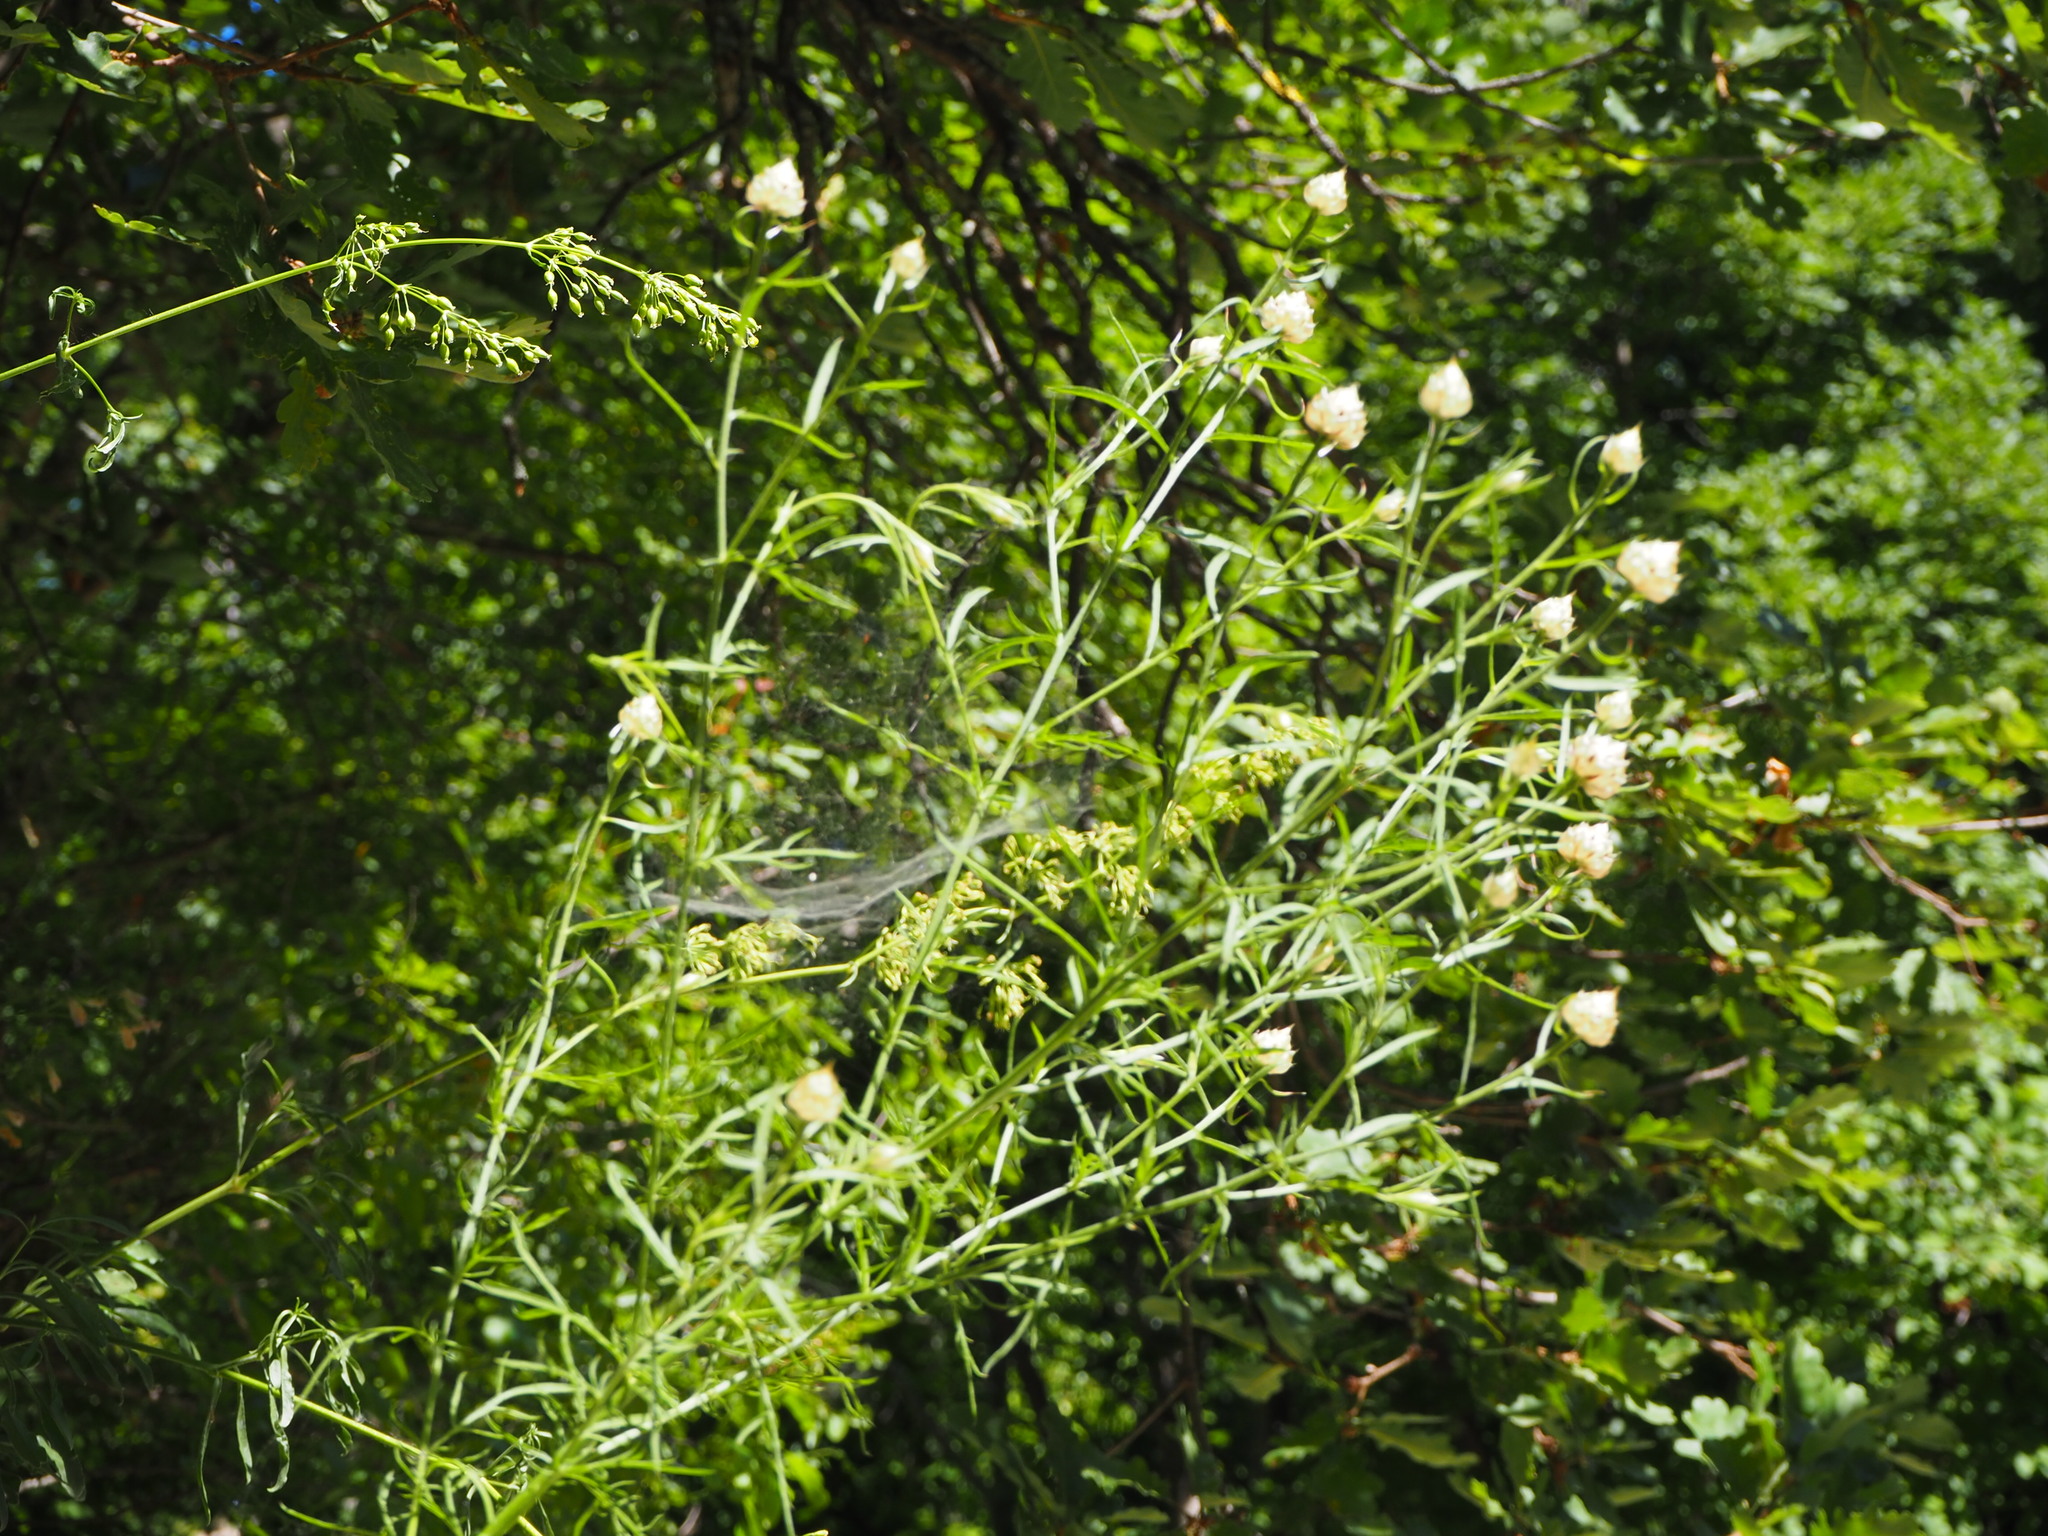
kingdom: Plantae
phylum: Tracheophyta
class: Magnoliopsida
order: Asterales
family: Asteraceae
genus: Centaurea
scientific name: Centaurea deusta
